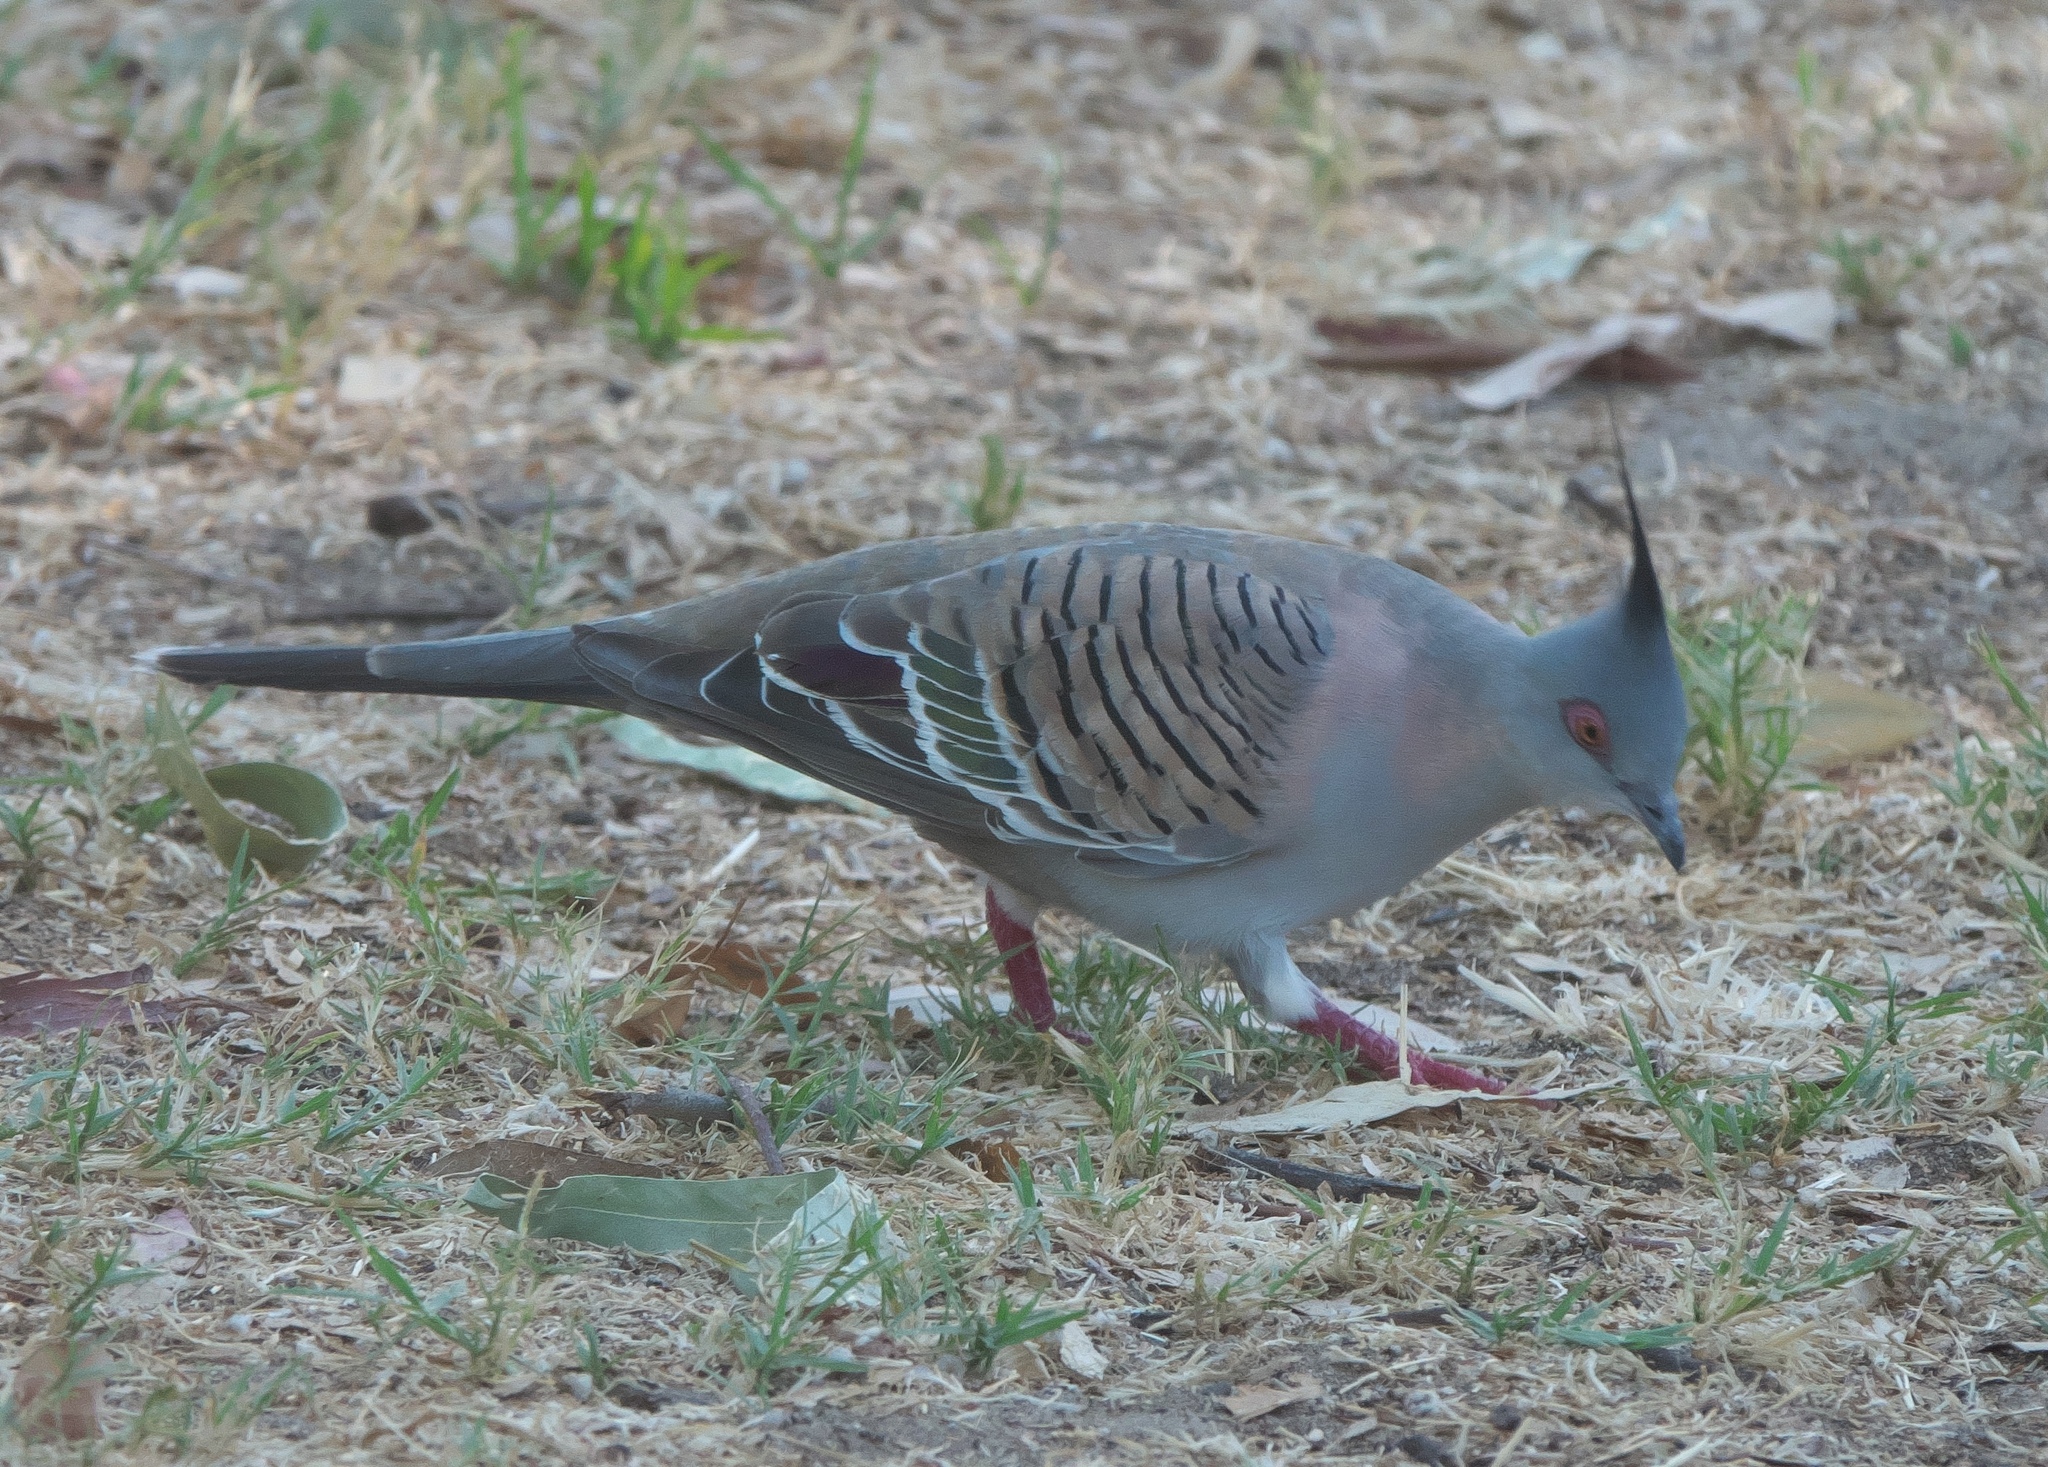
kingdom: Animalia
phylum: Chordata
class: Aves
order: Columbiformes
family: Columbidae
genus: Ocyphaps
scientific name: Ocyphaps lophotes
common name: Crested pigeon
